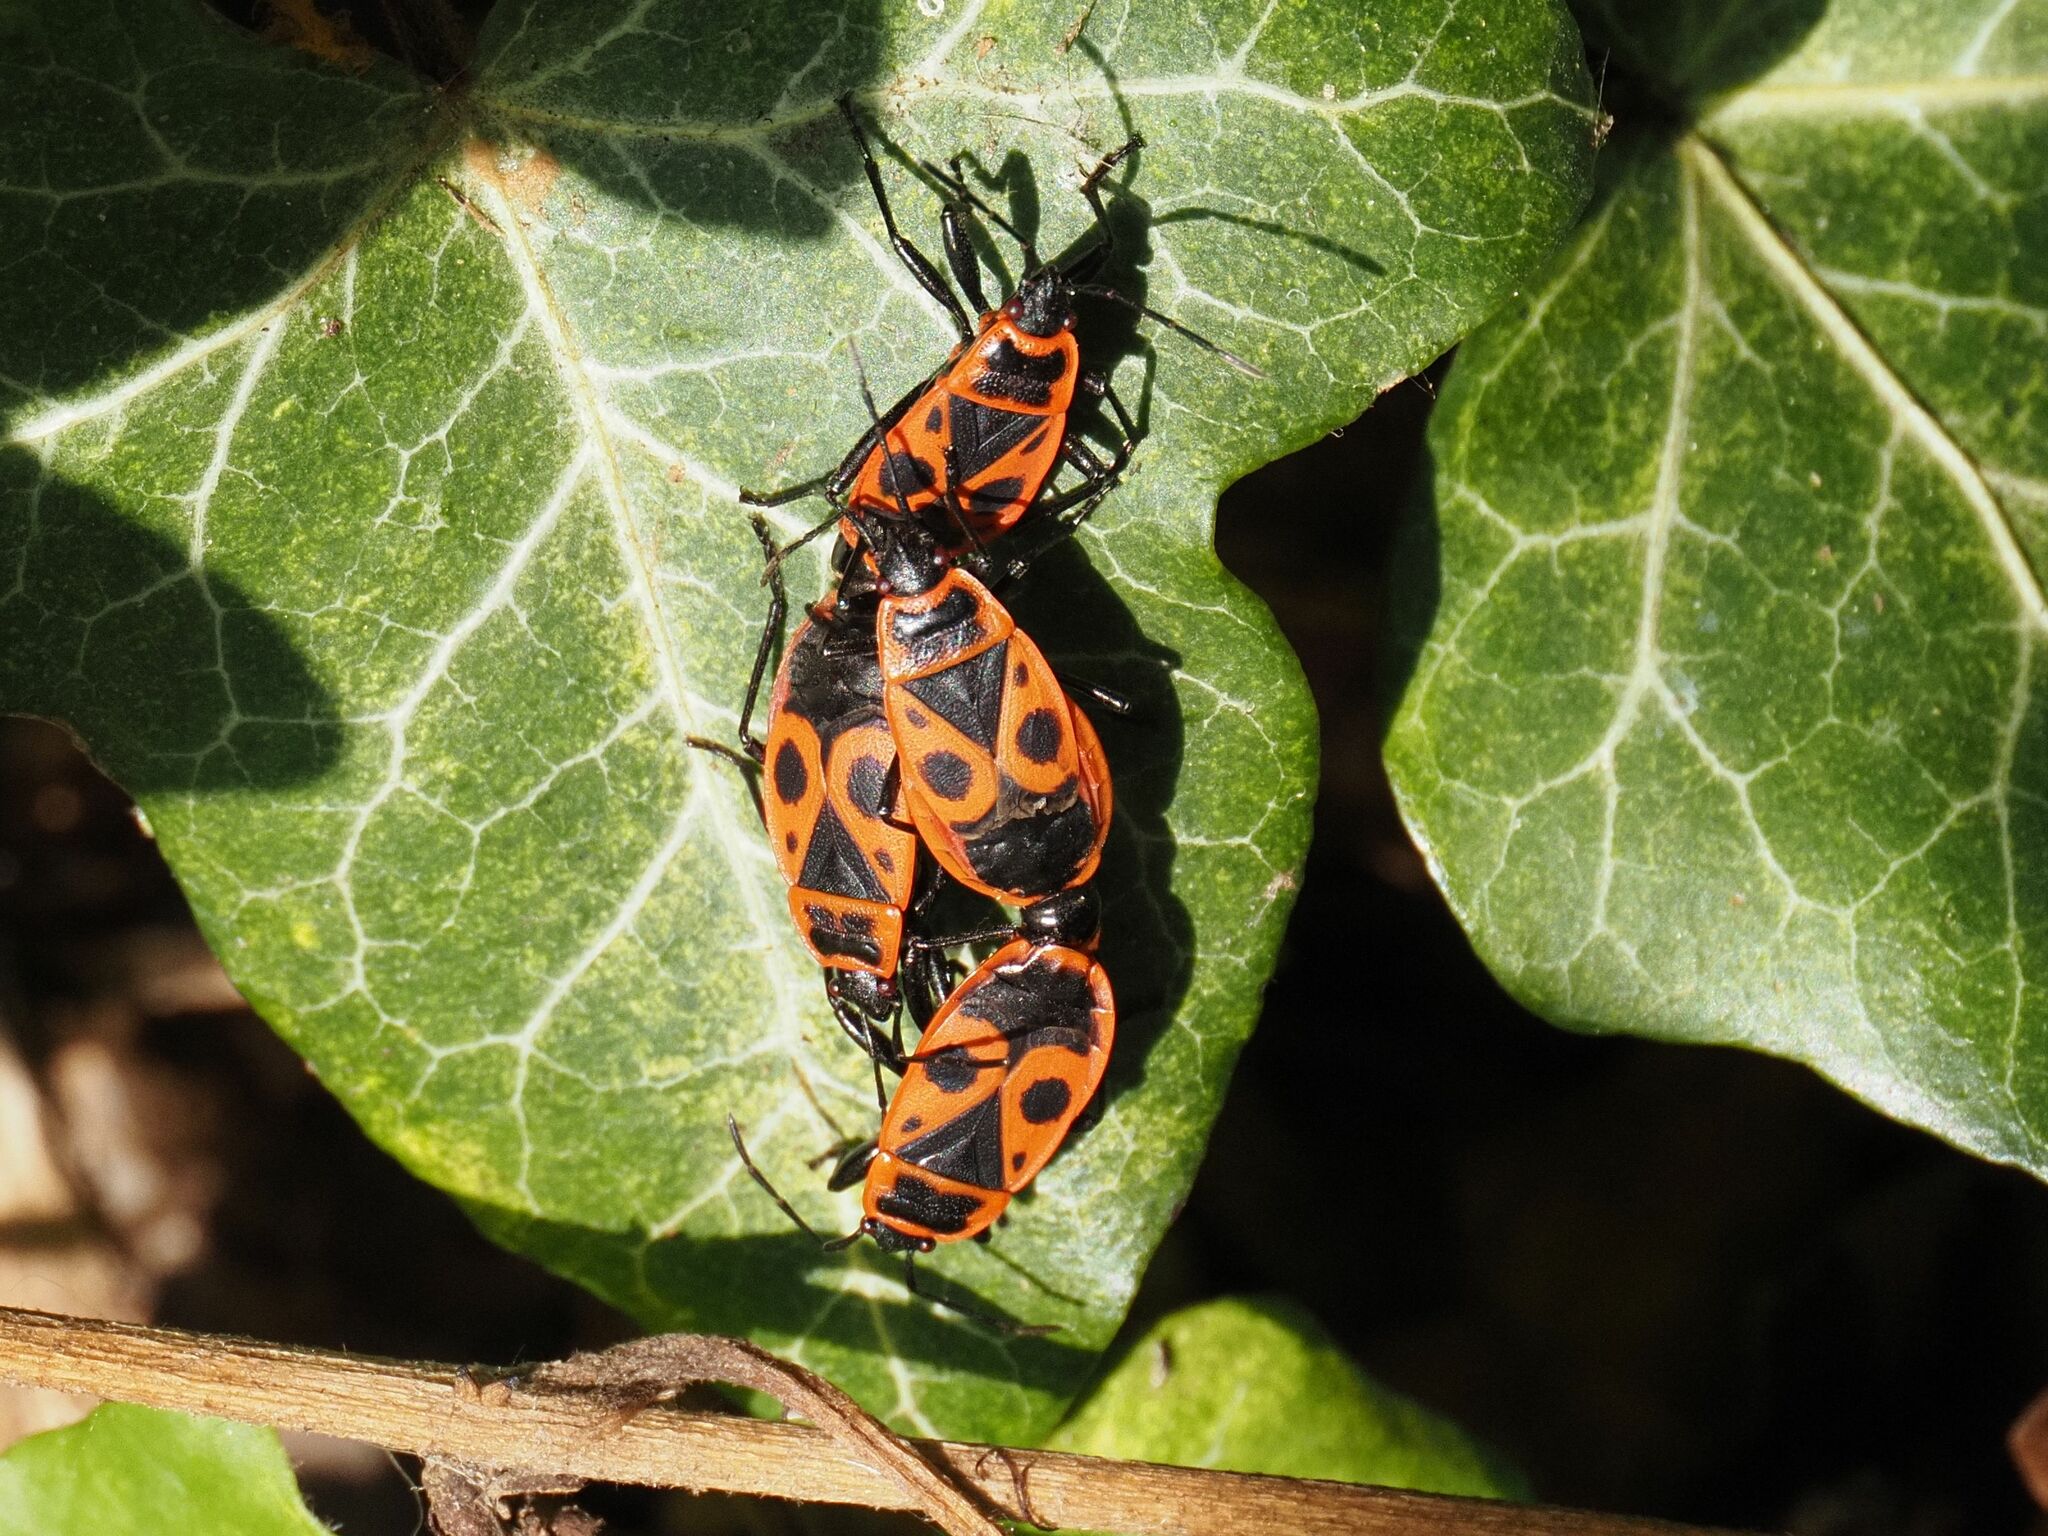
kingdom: Animalia
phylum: Arthropoda
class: Insecta
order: Hemiptera
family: Pyrrhocoridae
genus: Pyrrhocoris
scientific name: Pyrrhocoris apterus
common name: Firebug
